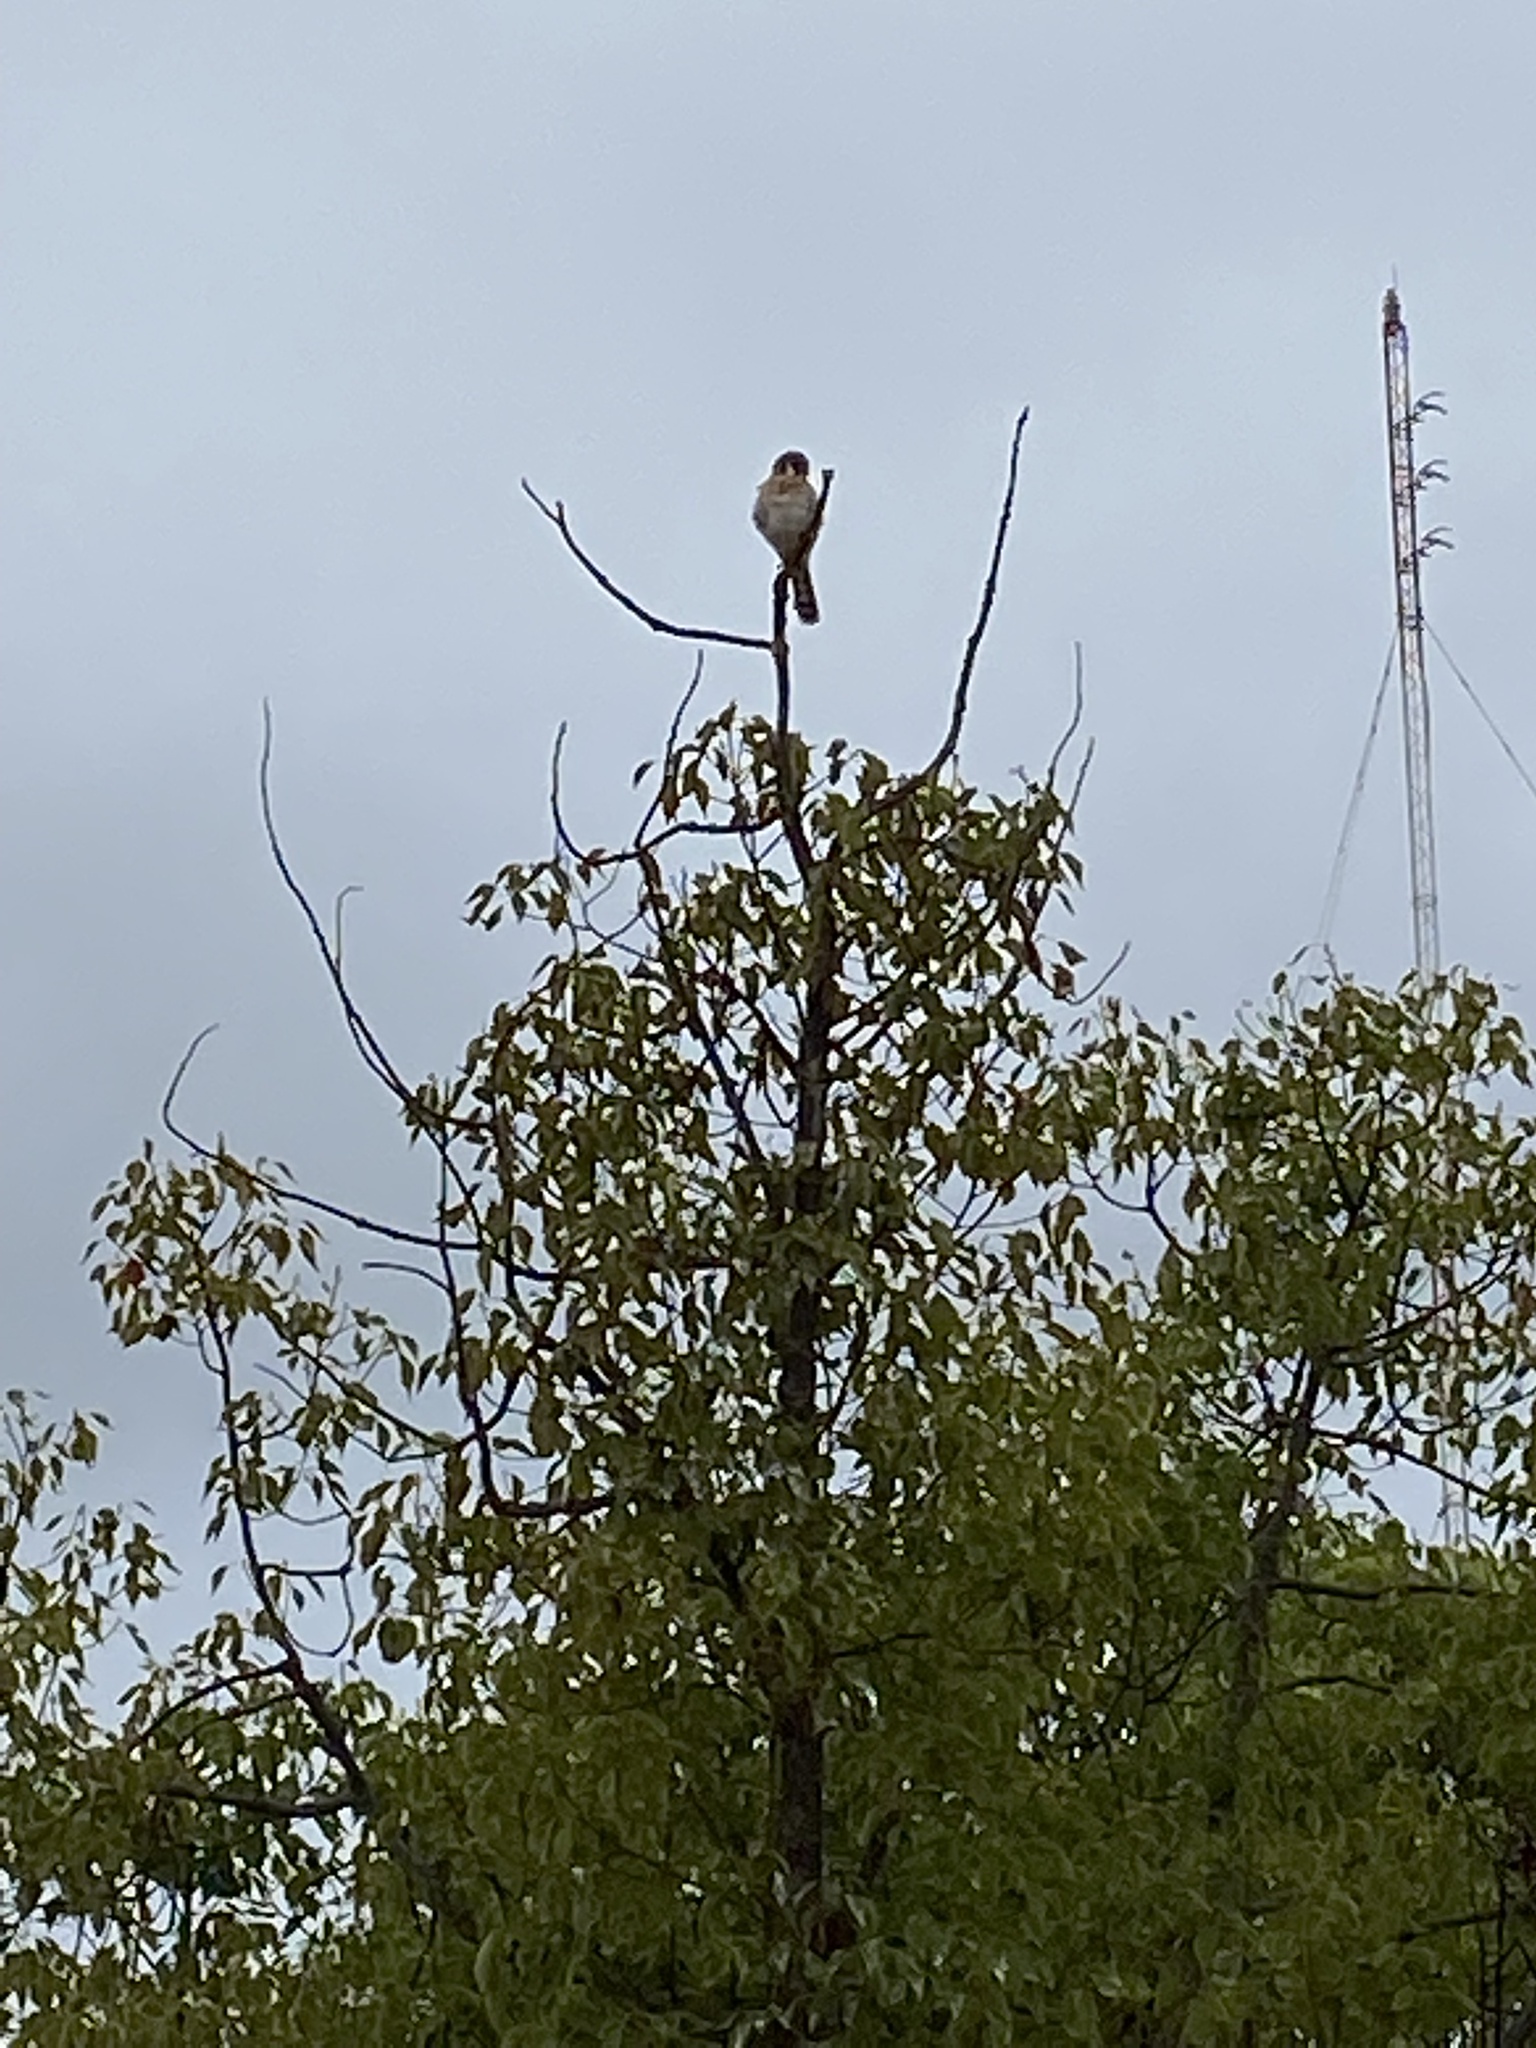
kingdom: Animalia
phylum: Chordata
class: Aves
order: Falconiformes
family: Falconidae
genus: Falco
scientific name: Falco sparverius
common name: American kestrel
